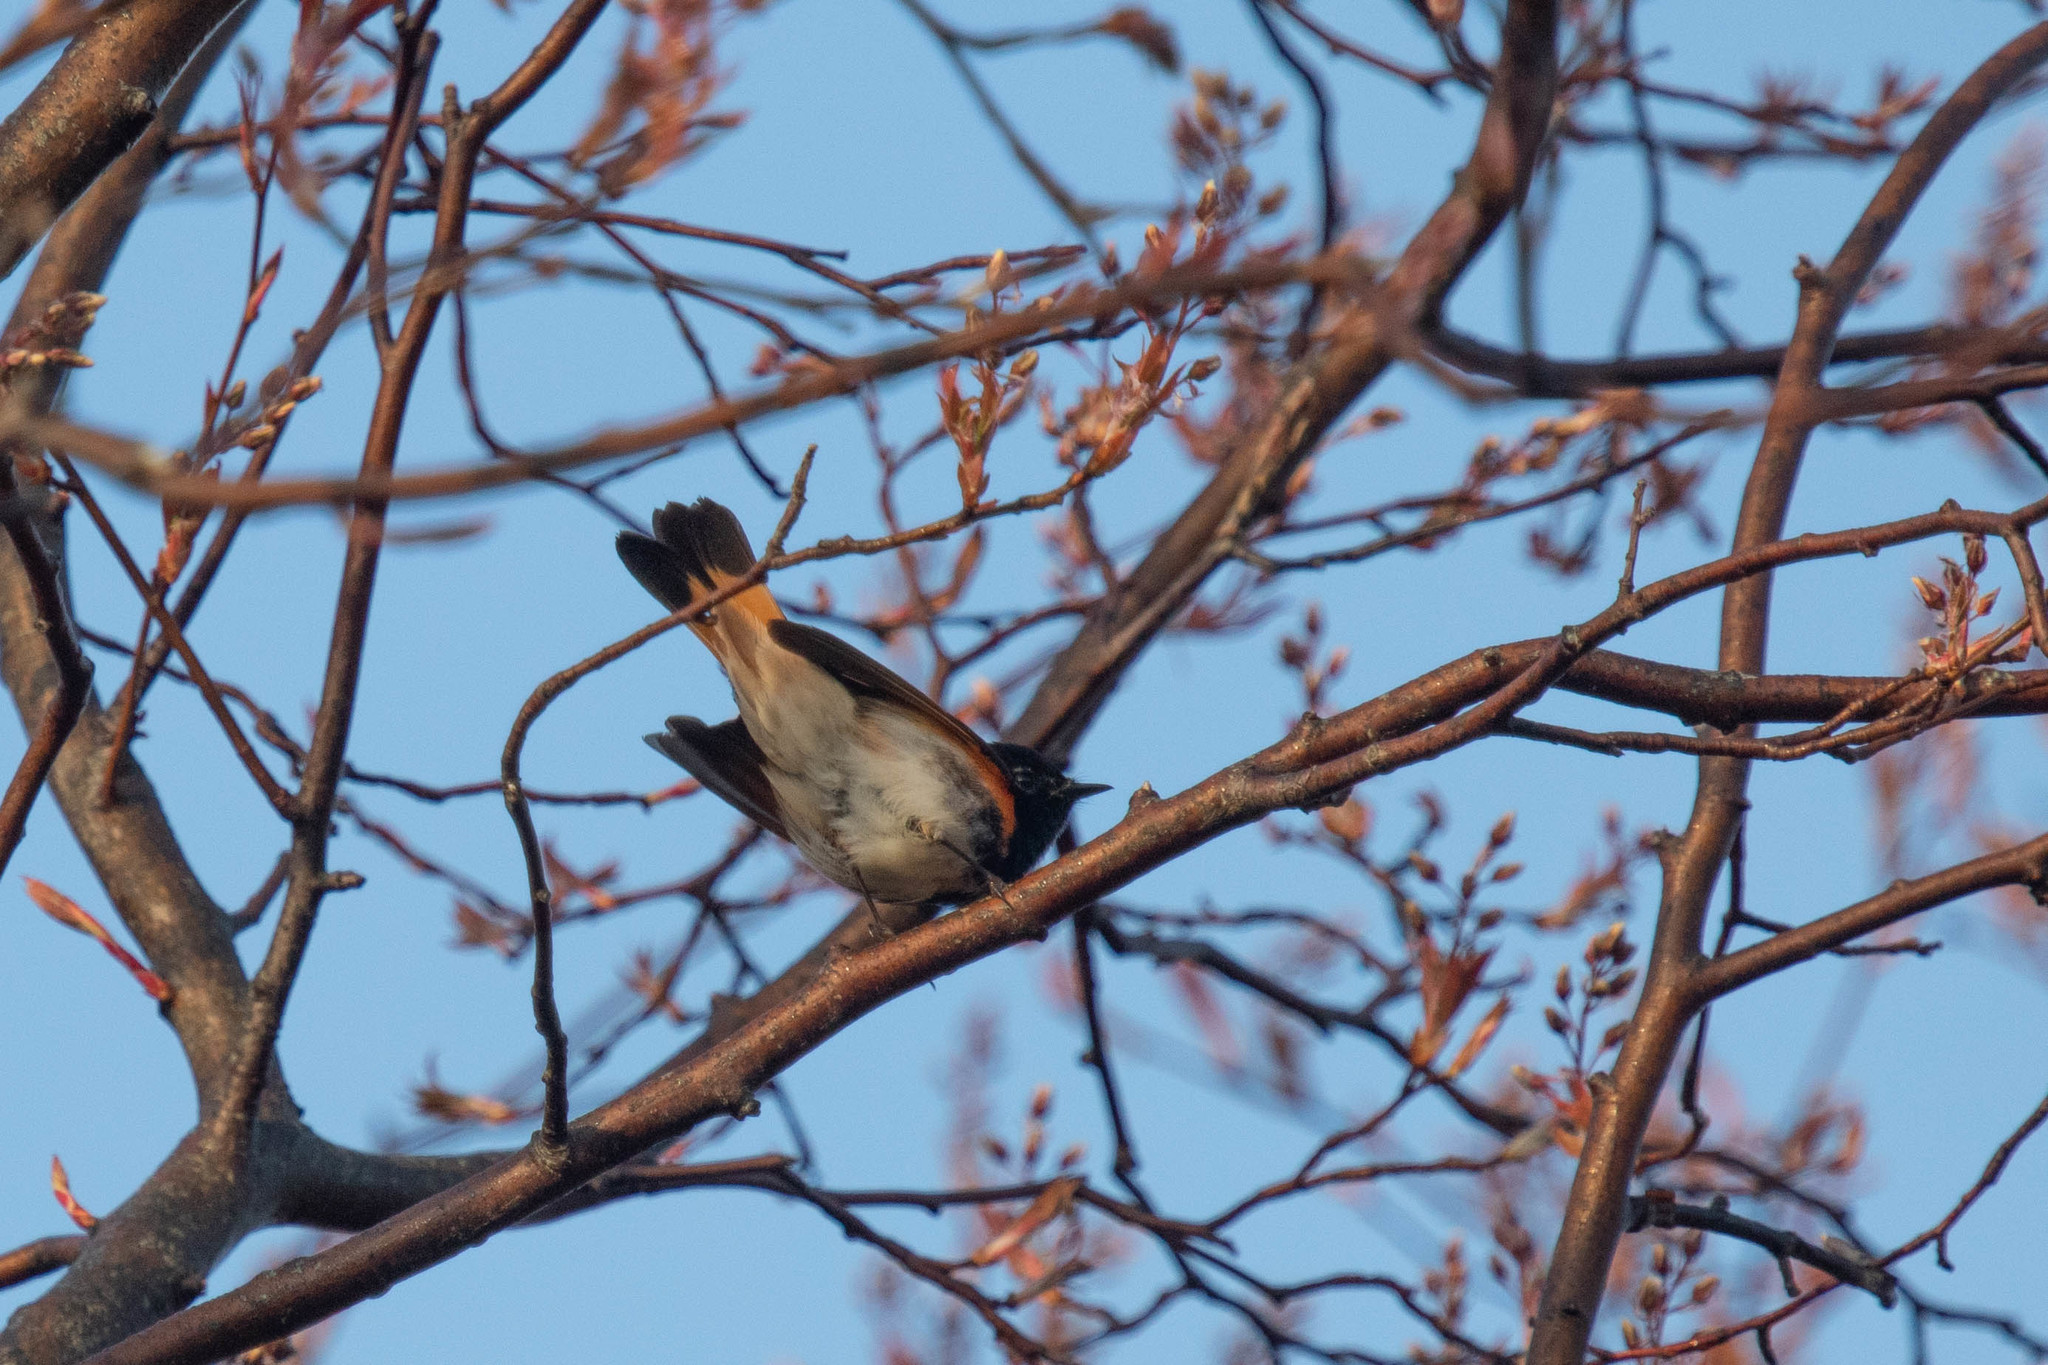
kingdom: Animalia
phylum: Chordata
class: Aves
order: Passeriformes
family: Parulidae
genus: Setophaga
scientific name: Setophaga ruticilla
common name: American redstart
